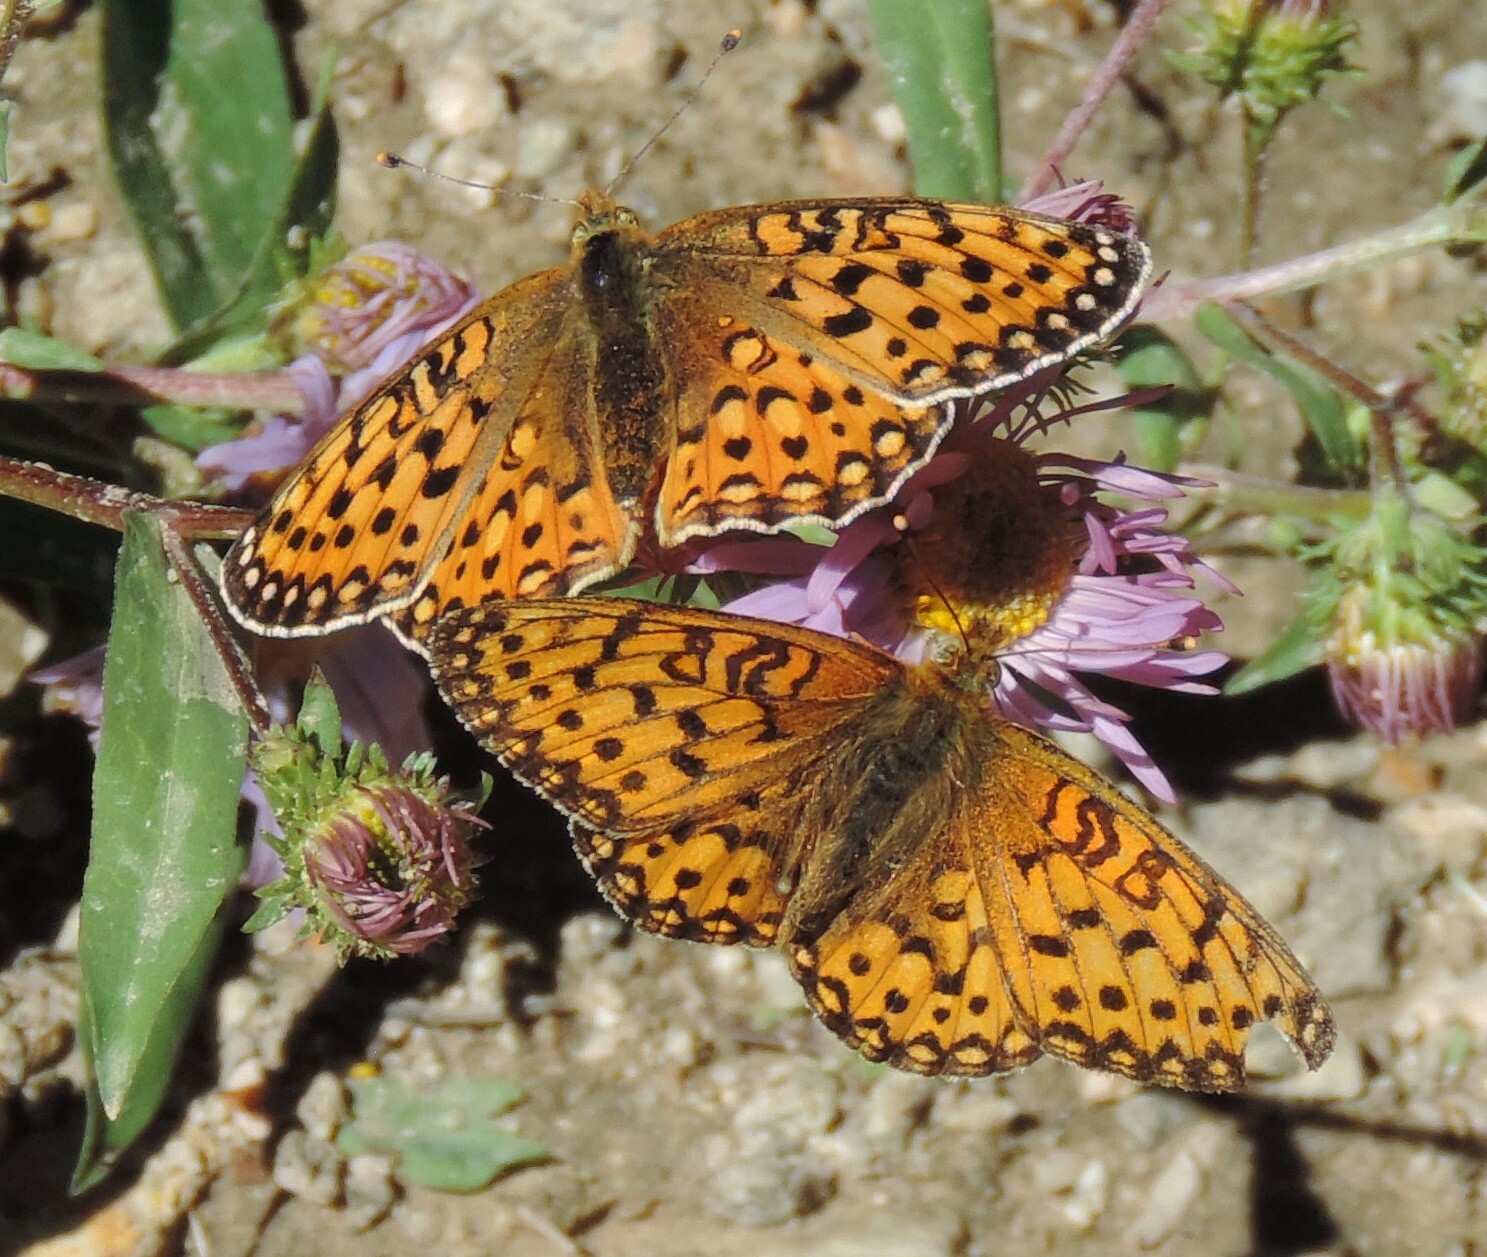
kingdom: Animalia
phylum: Arthropoda
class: Insecta
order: Lepidoptera
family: Nymphalidae
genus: Speyeria
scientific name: Speyeria mormonia
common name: Mormon fritillary
